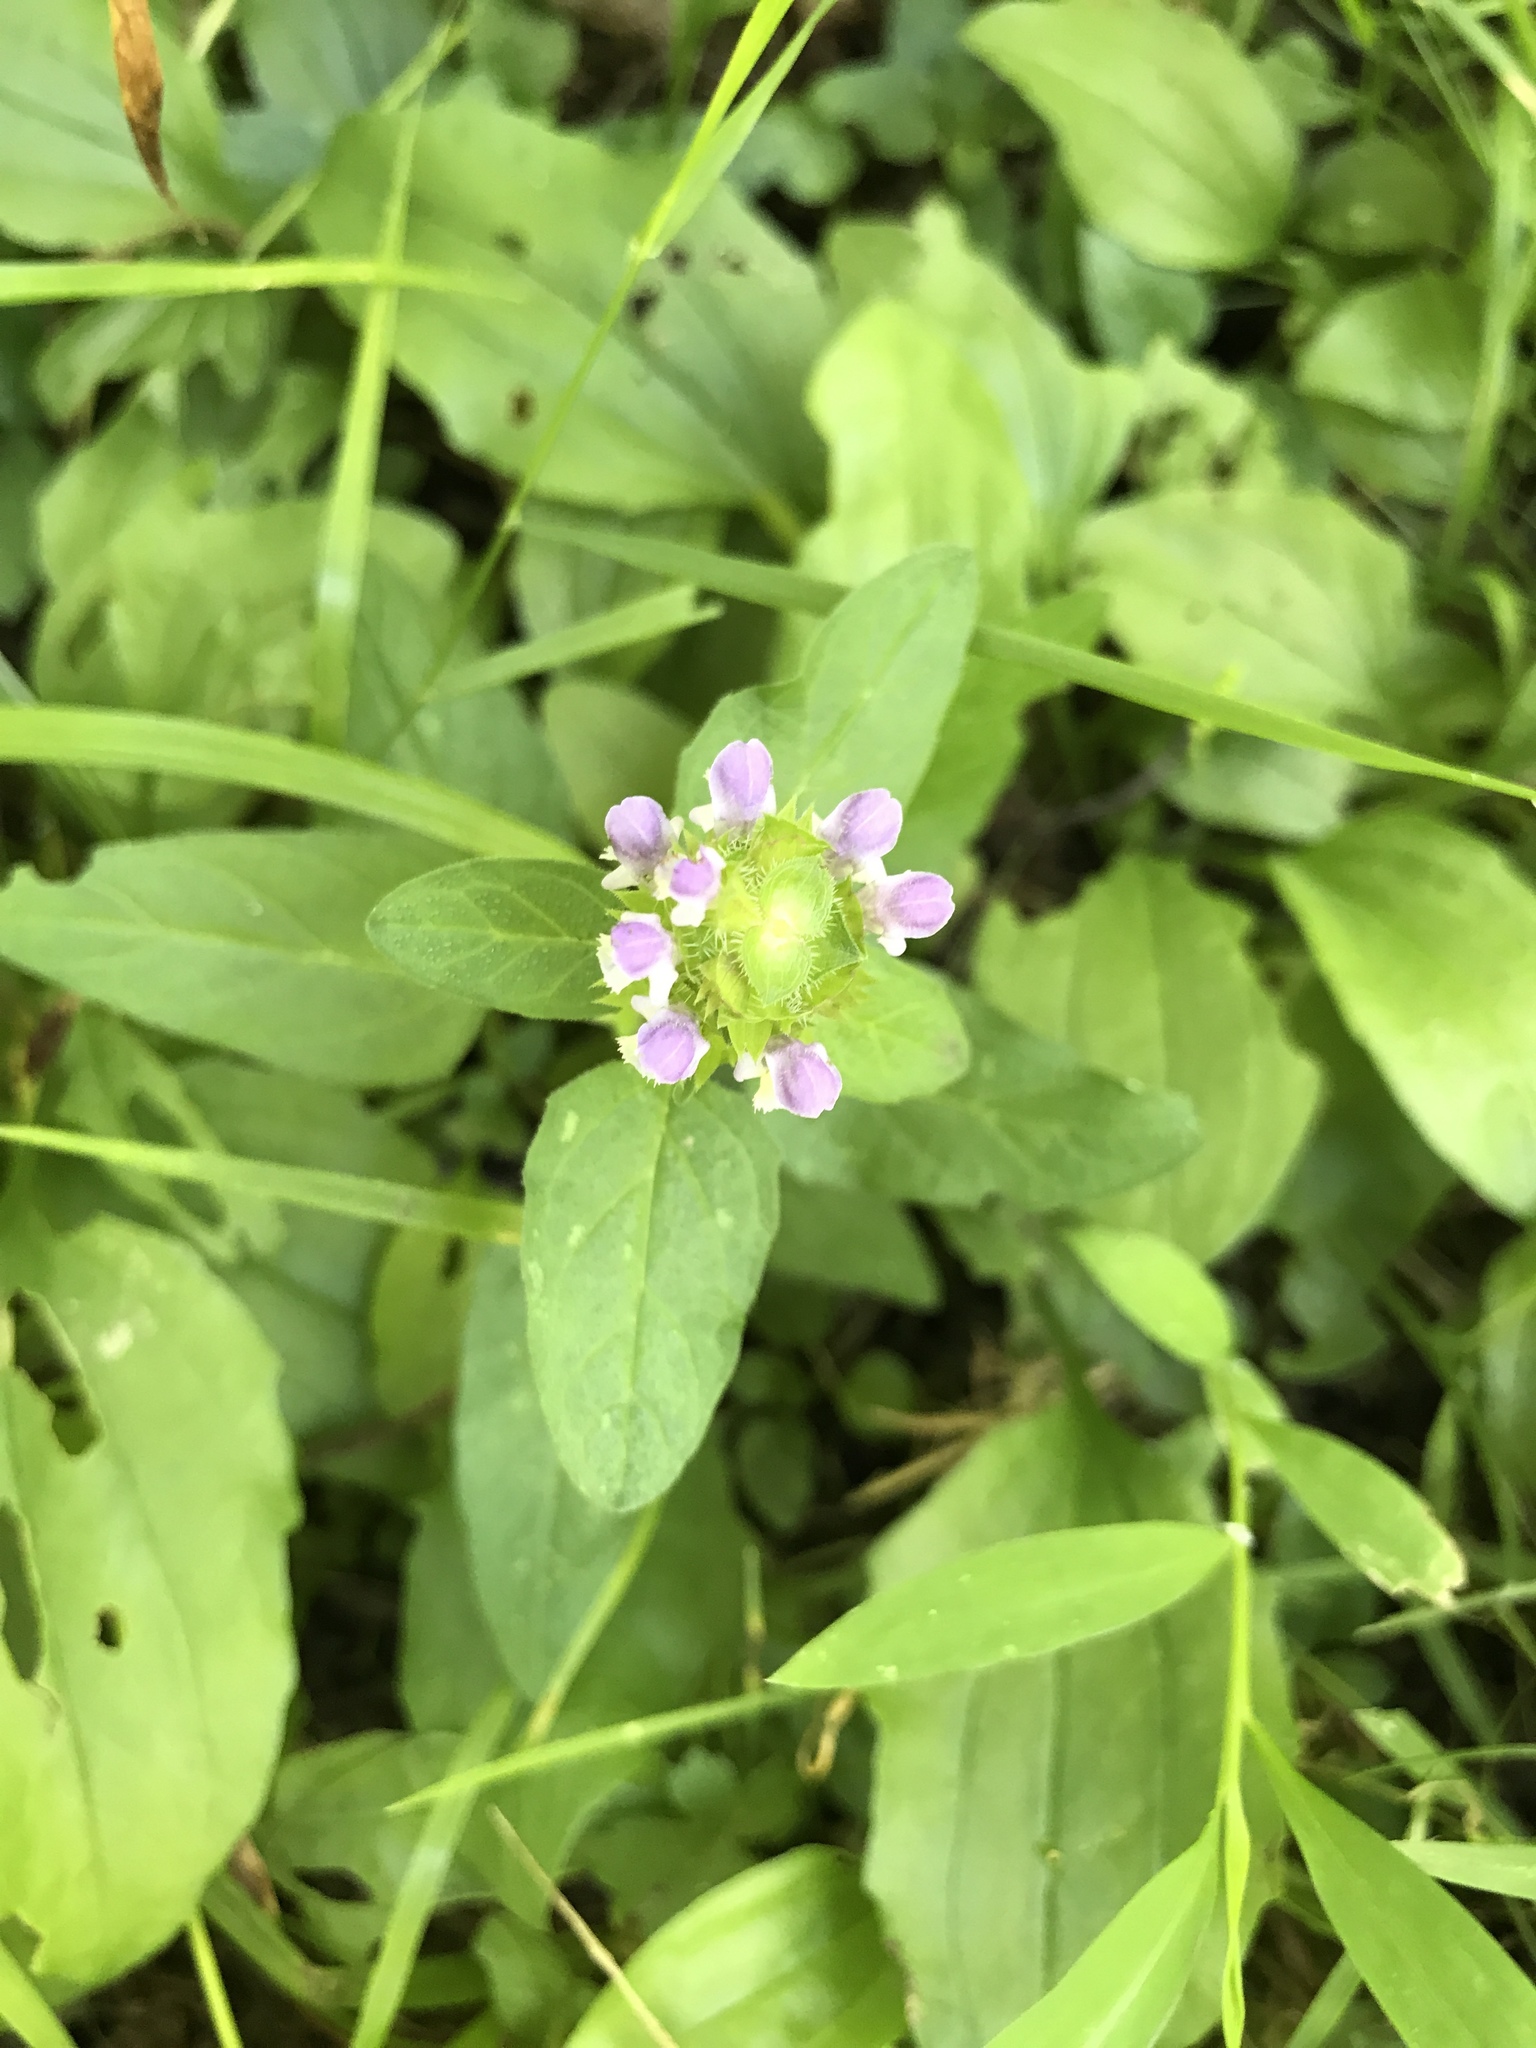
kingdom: Plantae
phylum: Tracheophyta
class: Magnoliopsida
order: Lamiales
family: Lamiaceae
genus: Prunella
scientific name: Prunella vulgaris
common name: Heal-all
